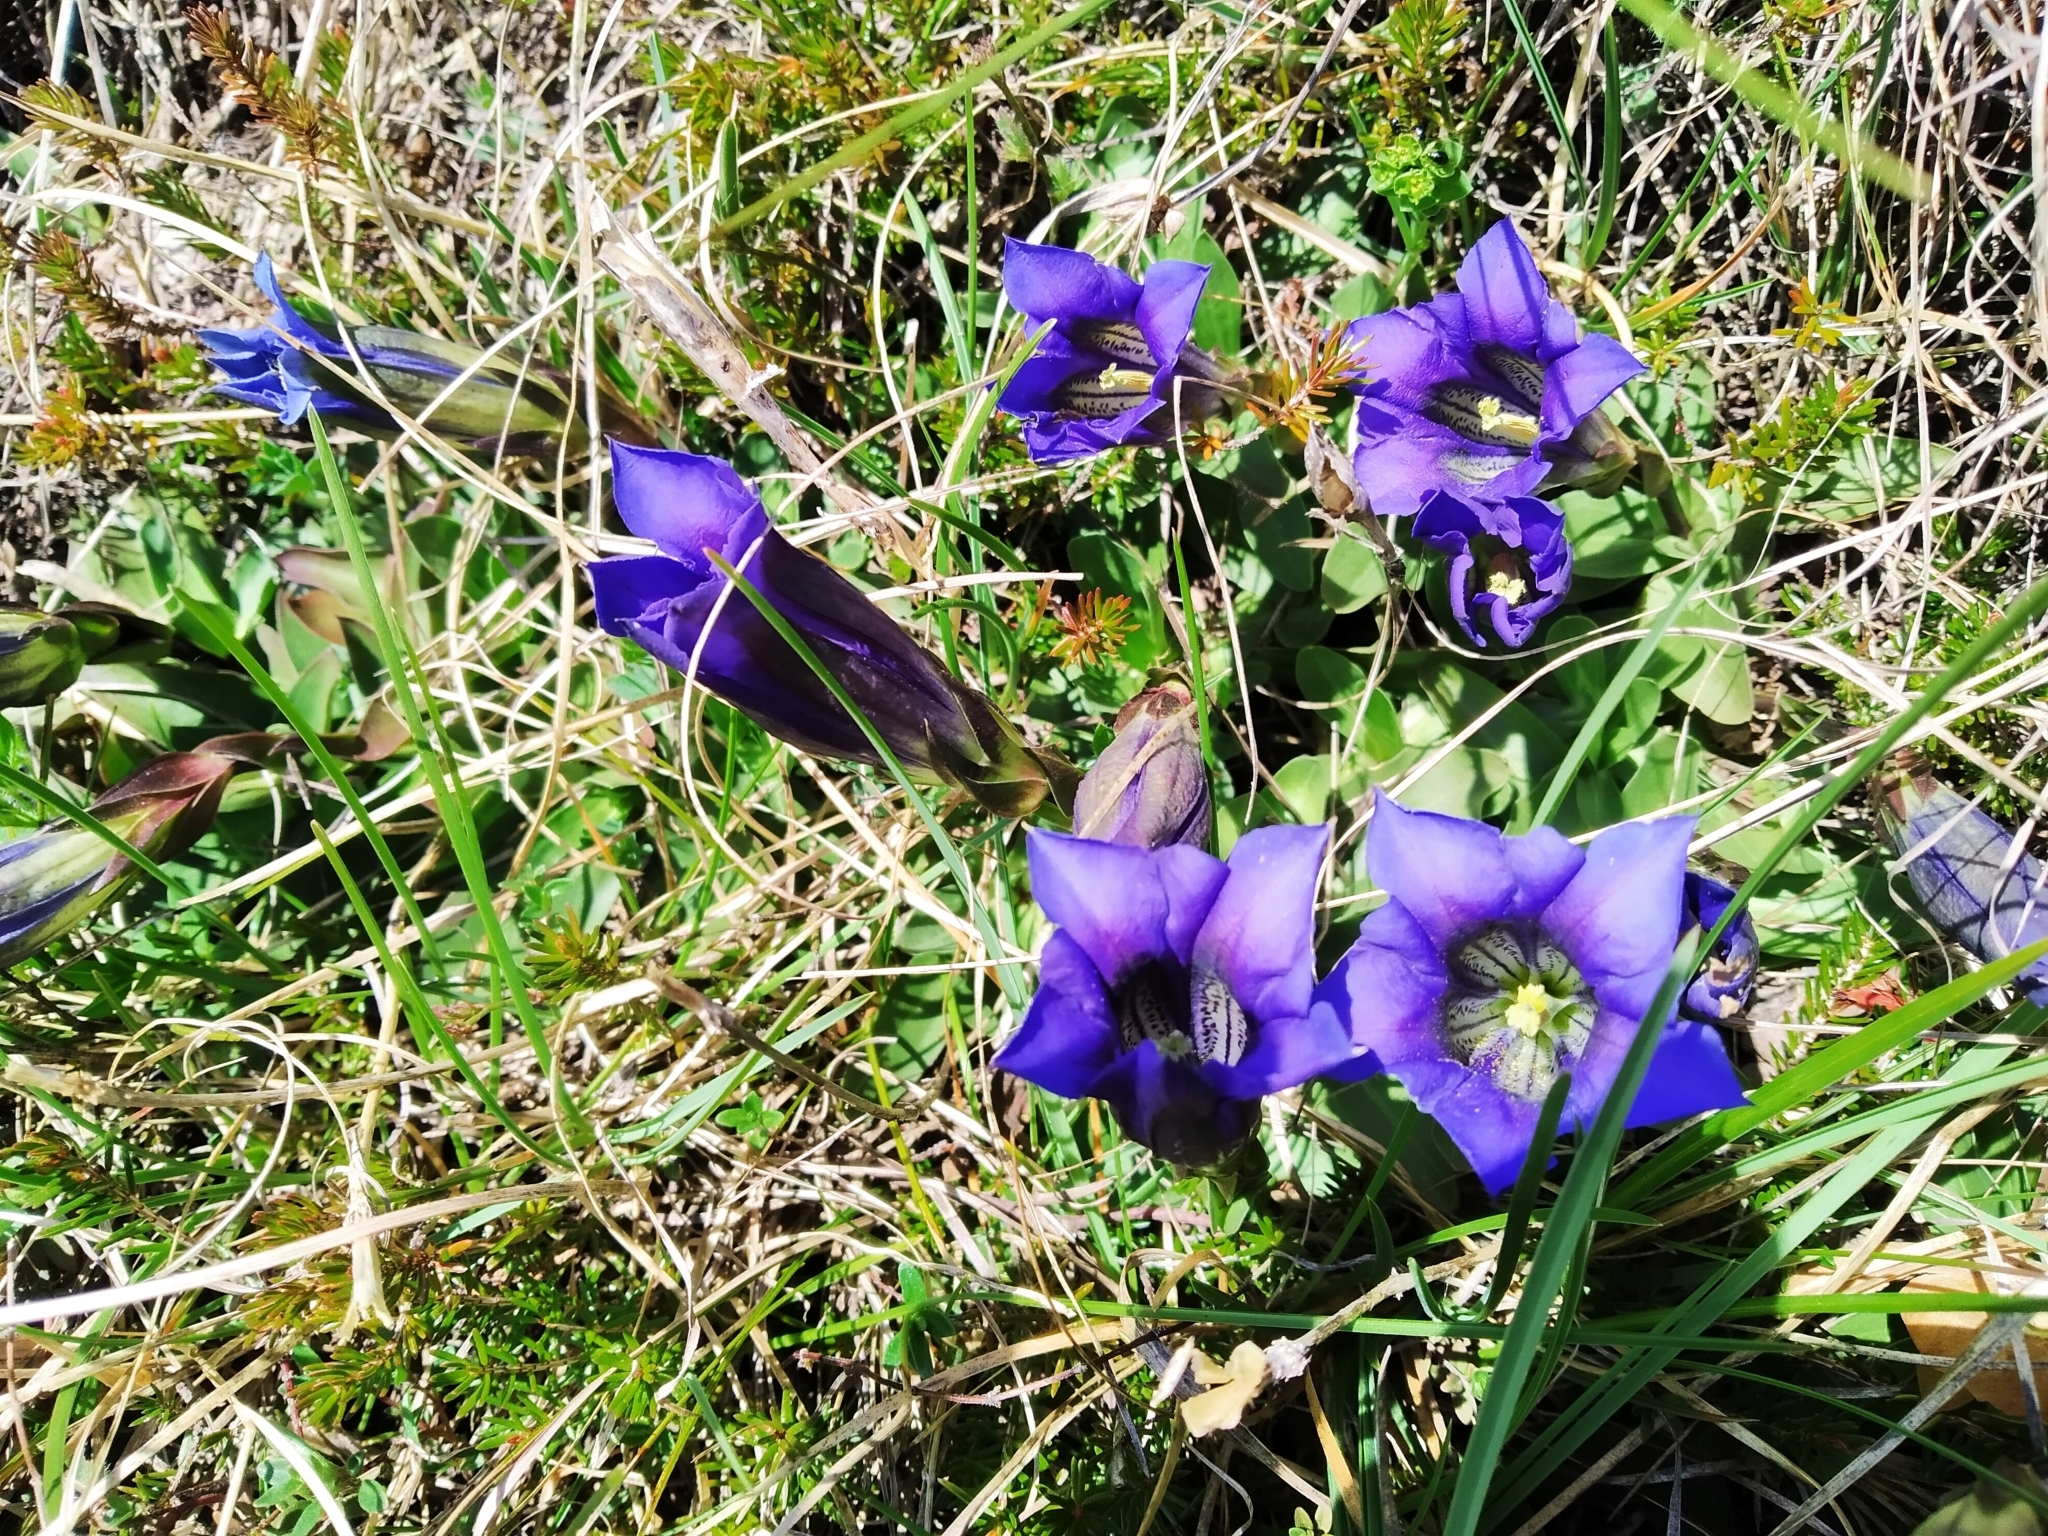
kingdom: Plantae
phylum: Tracheophyta
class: Magnoliopsida
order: Gentianales
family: Gentianaceae
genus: Gentiana
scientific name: Gentiana clusii
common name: Trumpet gentian
